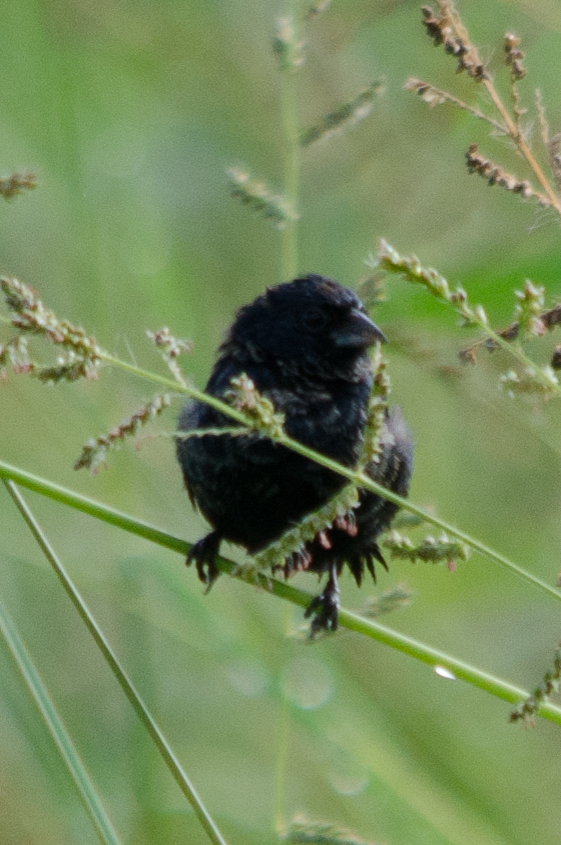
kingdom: Animalia
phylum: Chordata
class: Aves
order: Passeriformes
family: Thraupidae
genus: Volatinia
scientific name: Volatinia jacarina
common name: Blue-black grassquit
